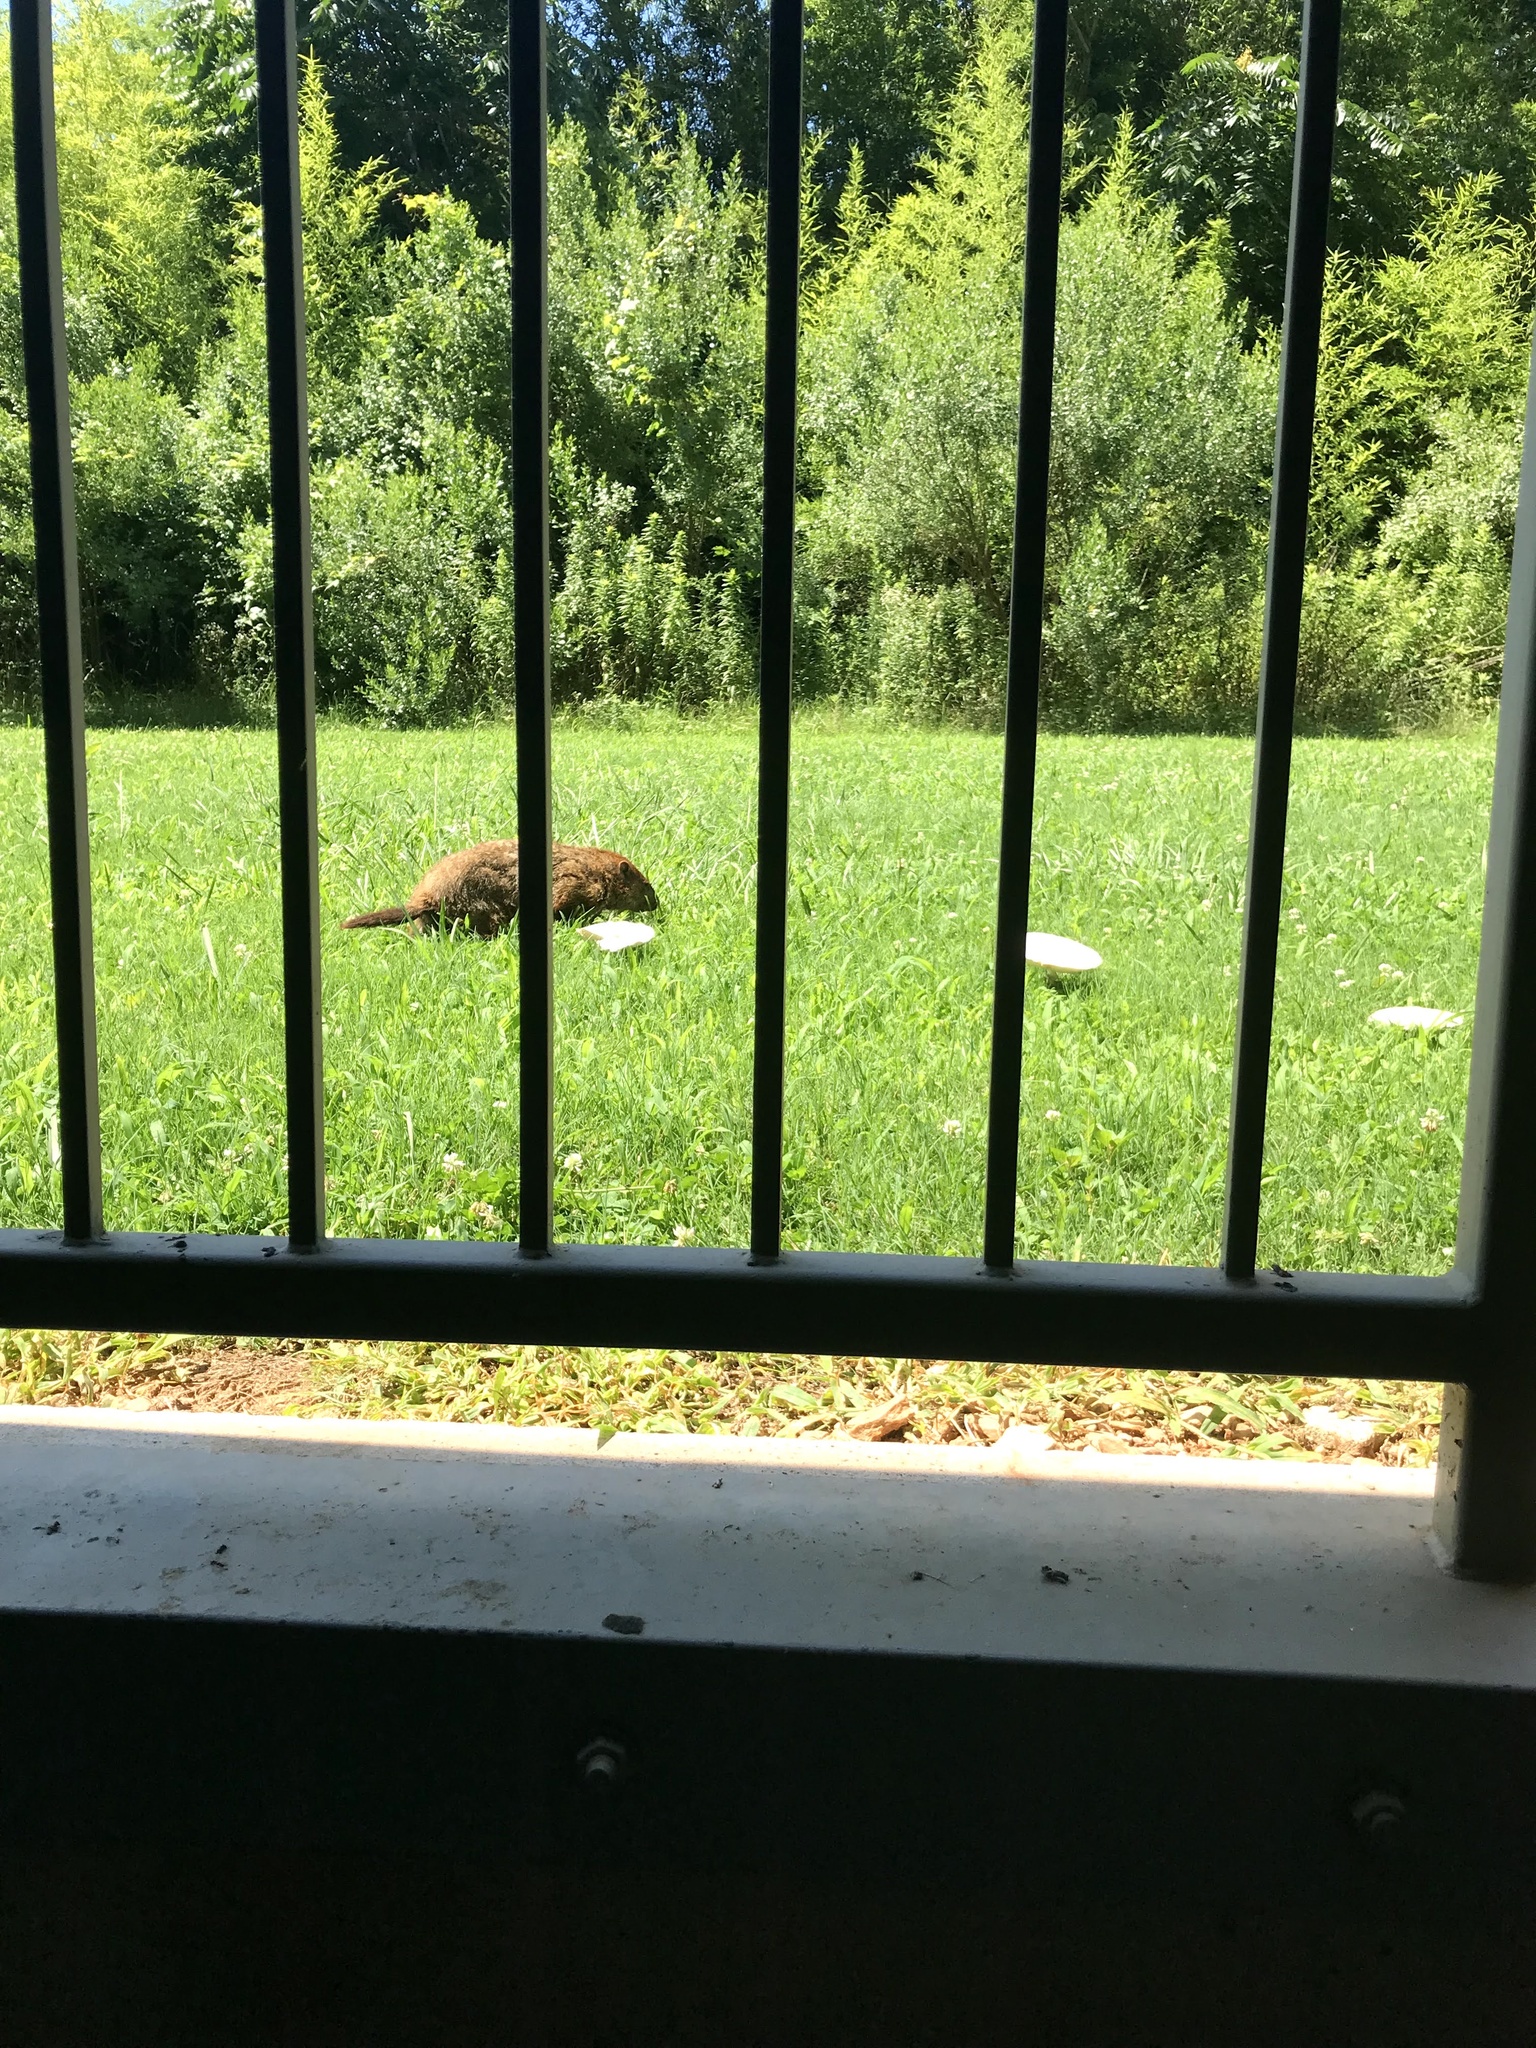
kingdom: Animalia
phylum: Chordata
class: Mammalia
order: Rodentia
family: Sciuridae
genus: Marmota
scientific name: Marmota monax
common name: Groundhog
